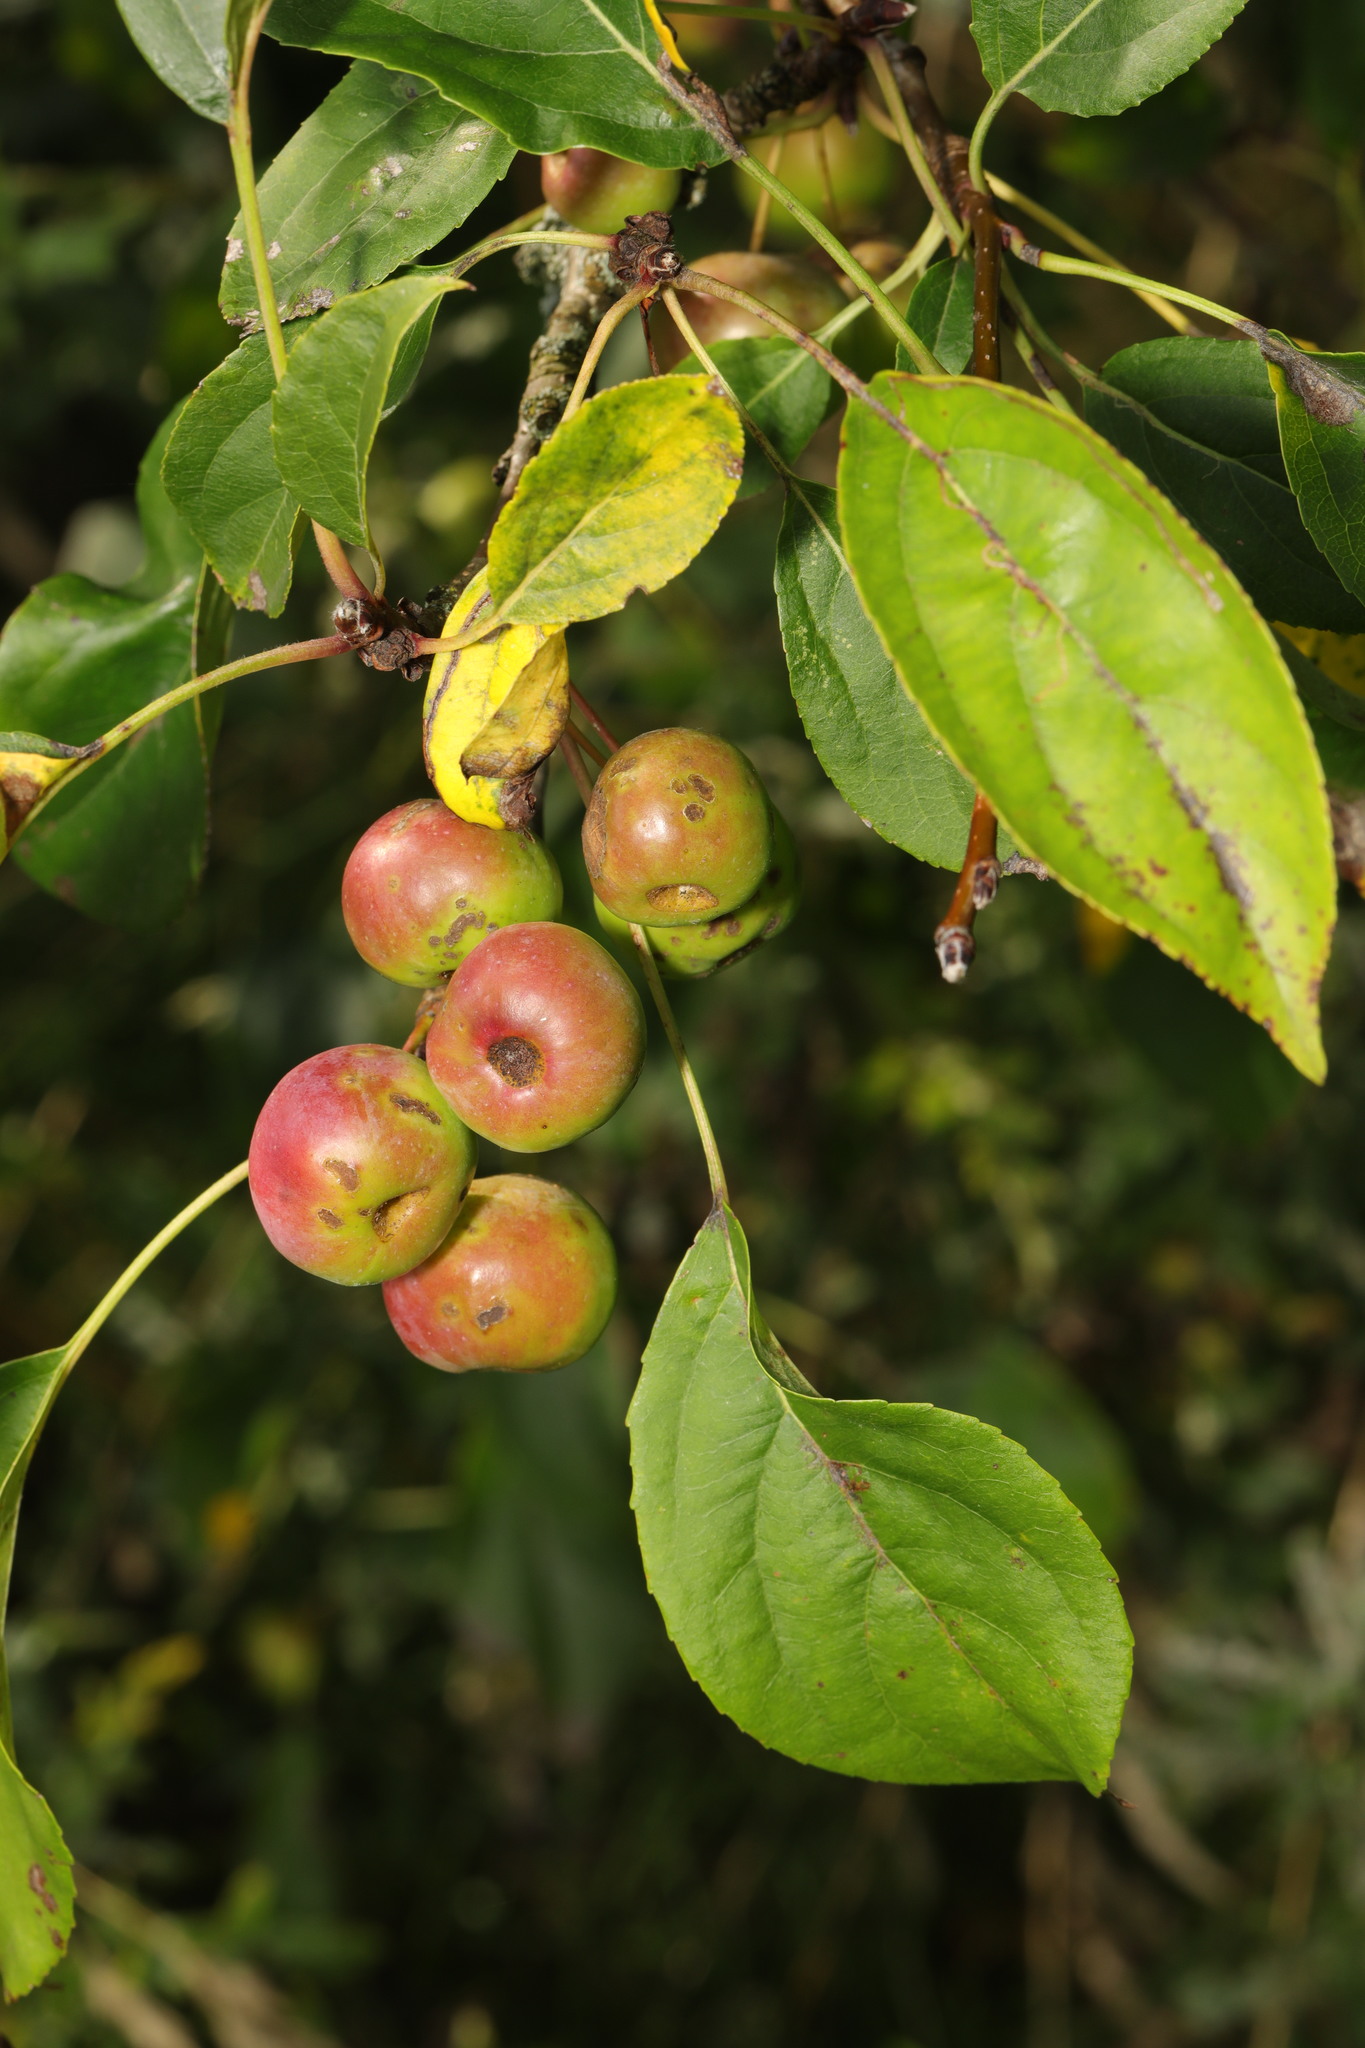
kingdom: Plantae
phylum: Tracheophyta
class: Magnoliopsida
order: Rosales
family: Rosaceae
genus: Malus
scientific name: Malus sylvestris
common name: Crab apple
